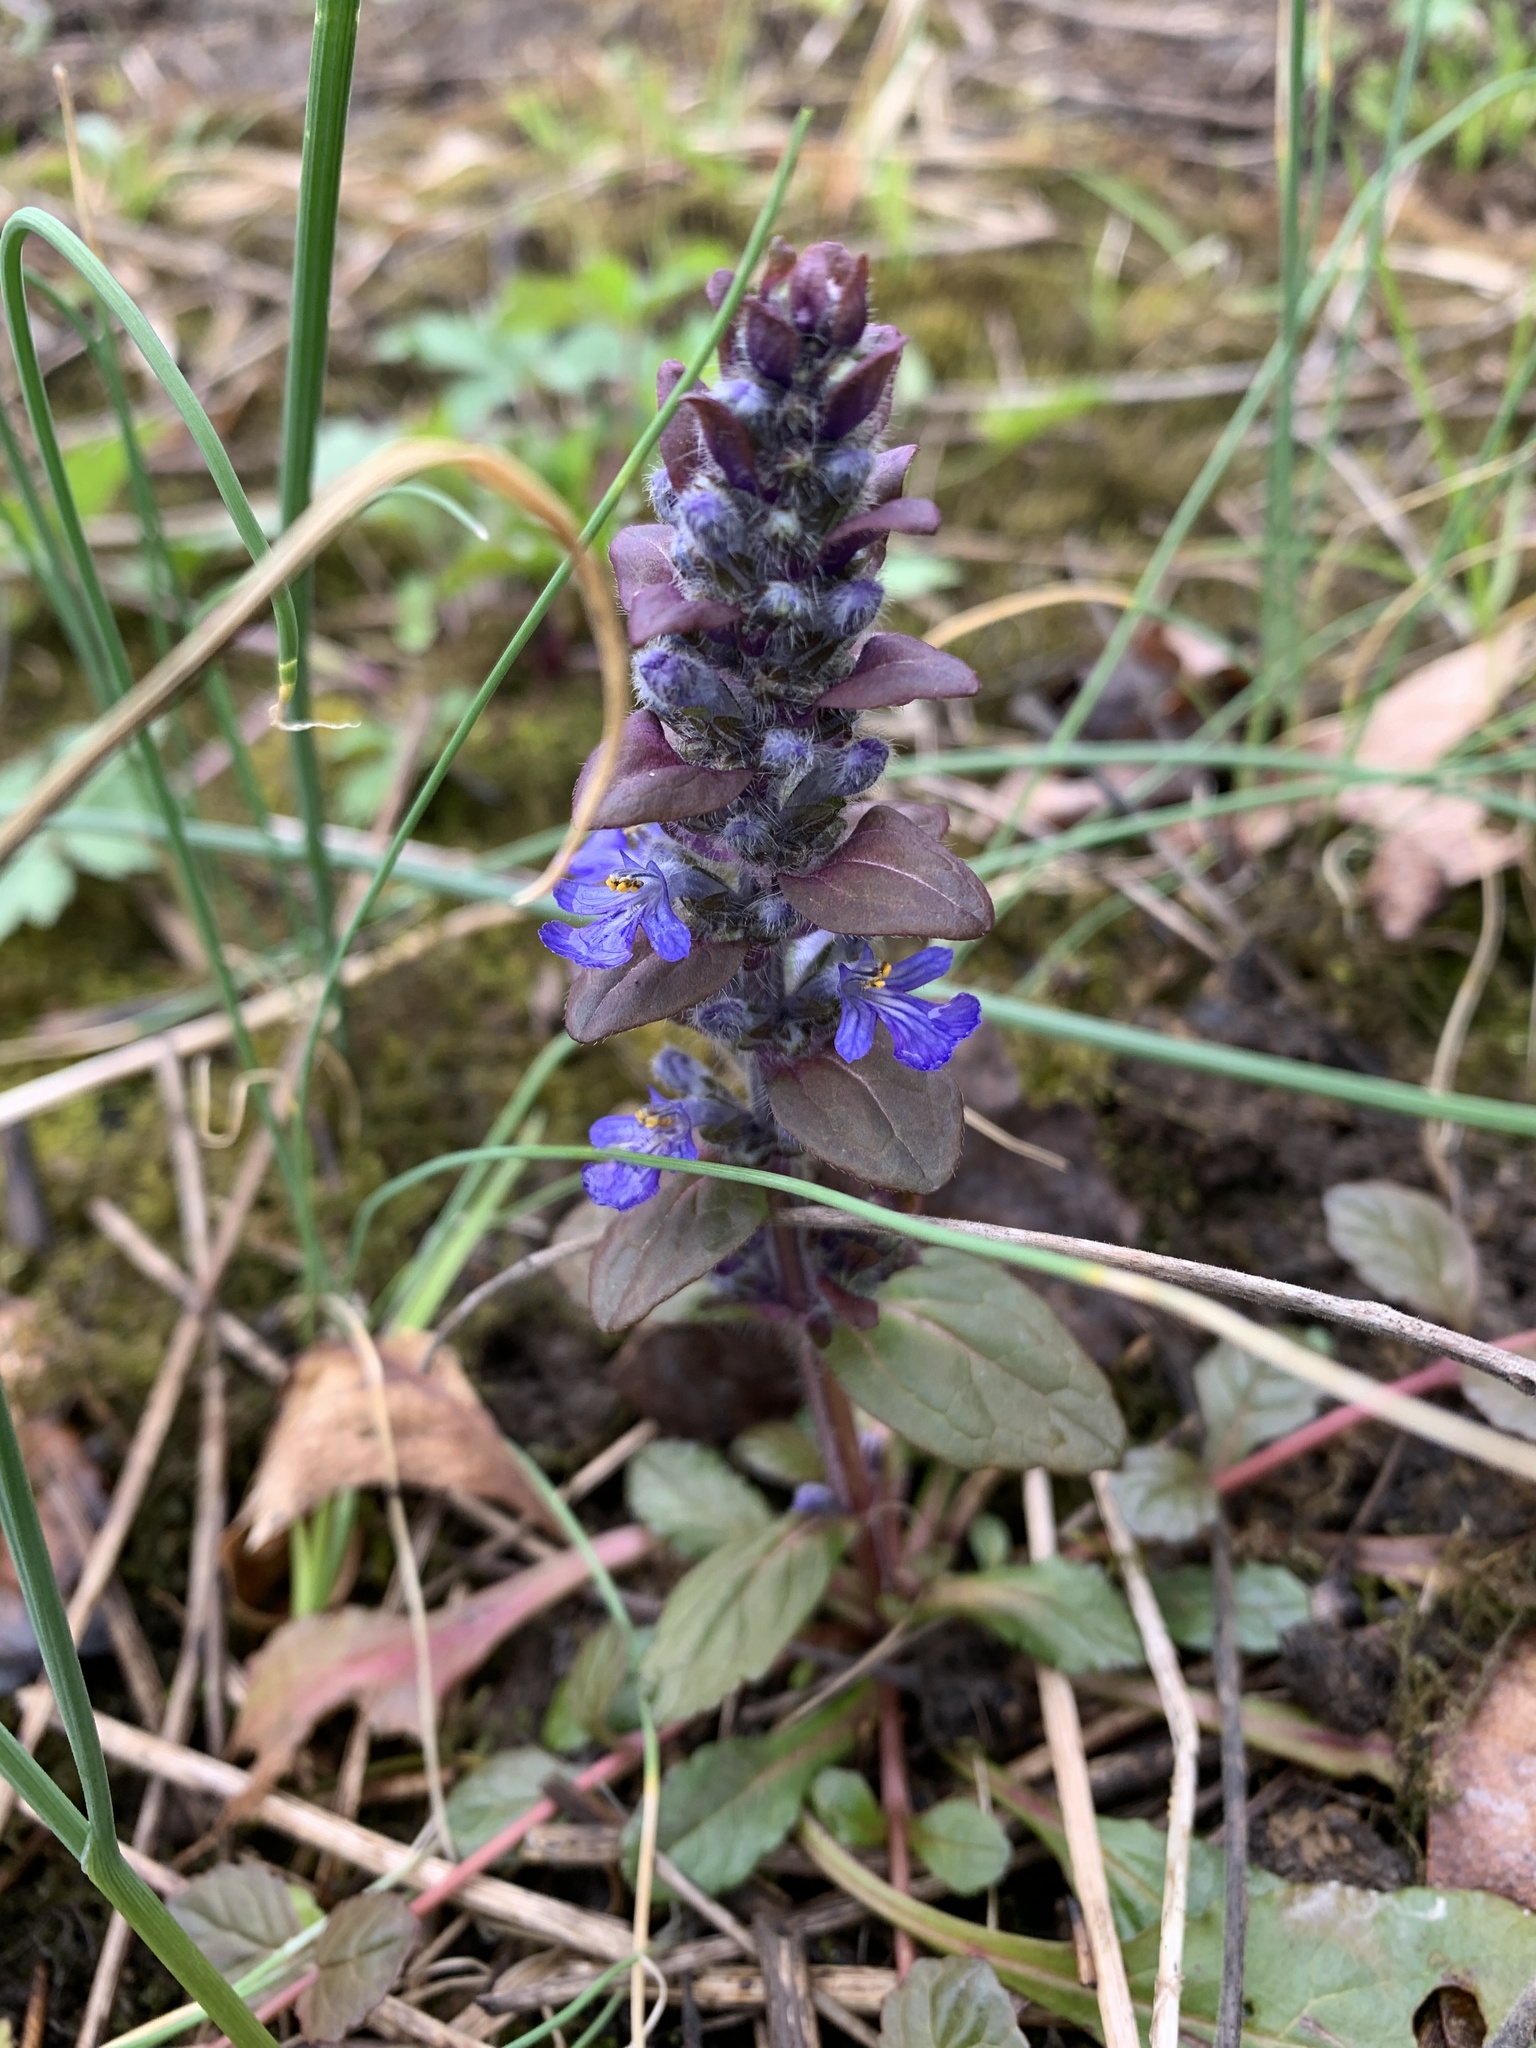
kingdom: Plantae
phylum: Tracheophyta
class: Magnoliopsida
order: Lamiales
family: Lamiaceae
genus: Ajuga
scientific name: Ajuga reptans
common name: Bugle
